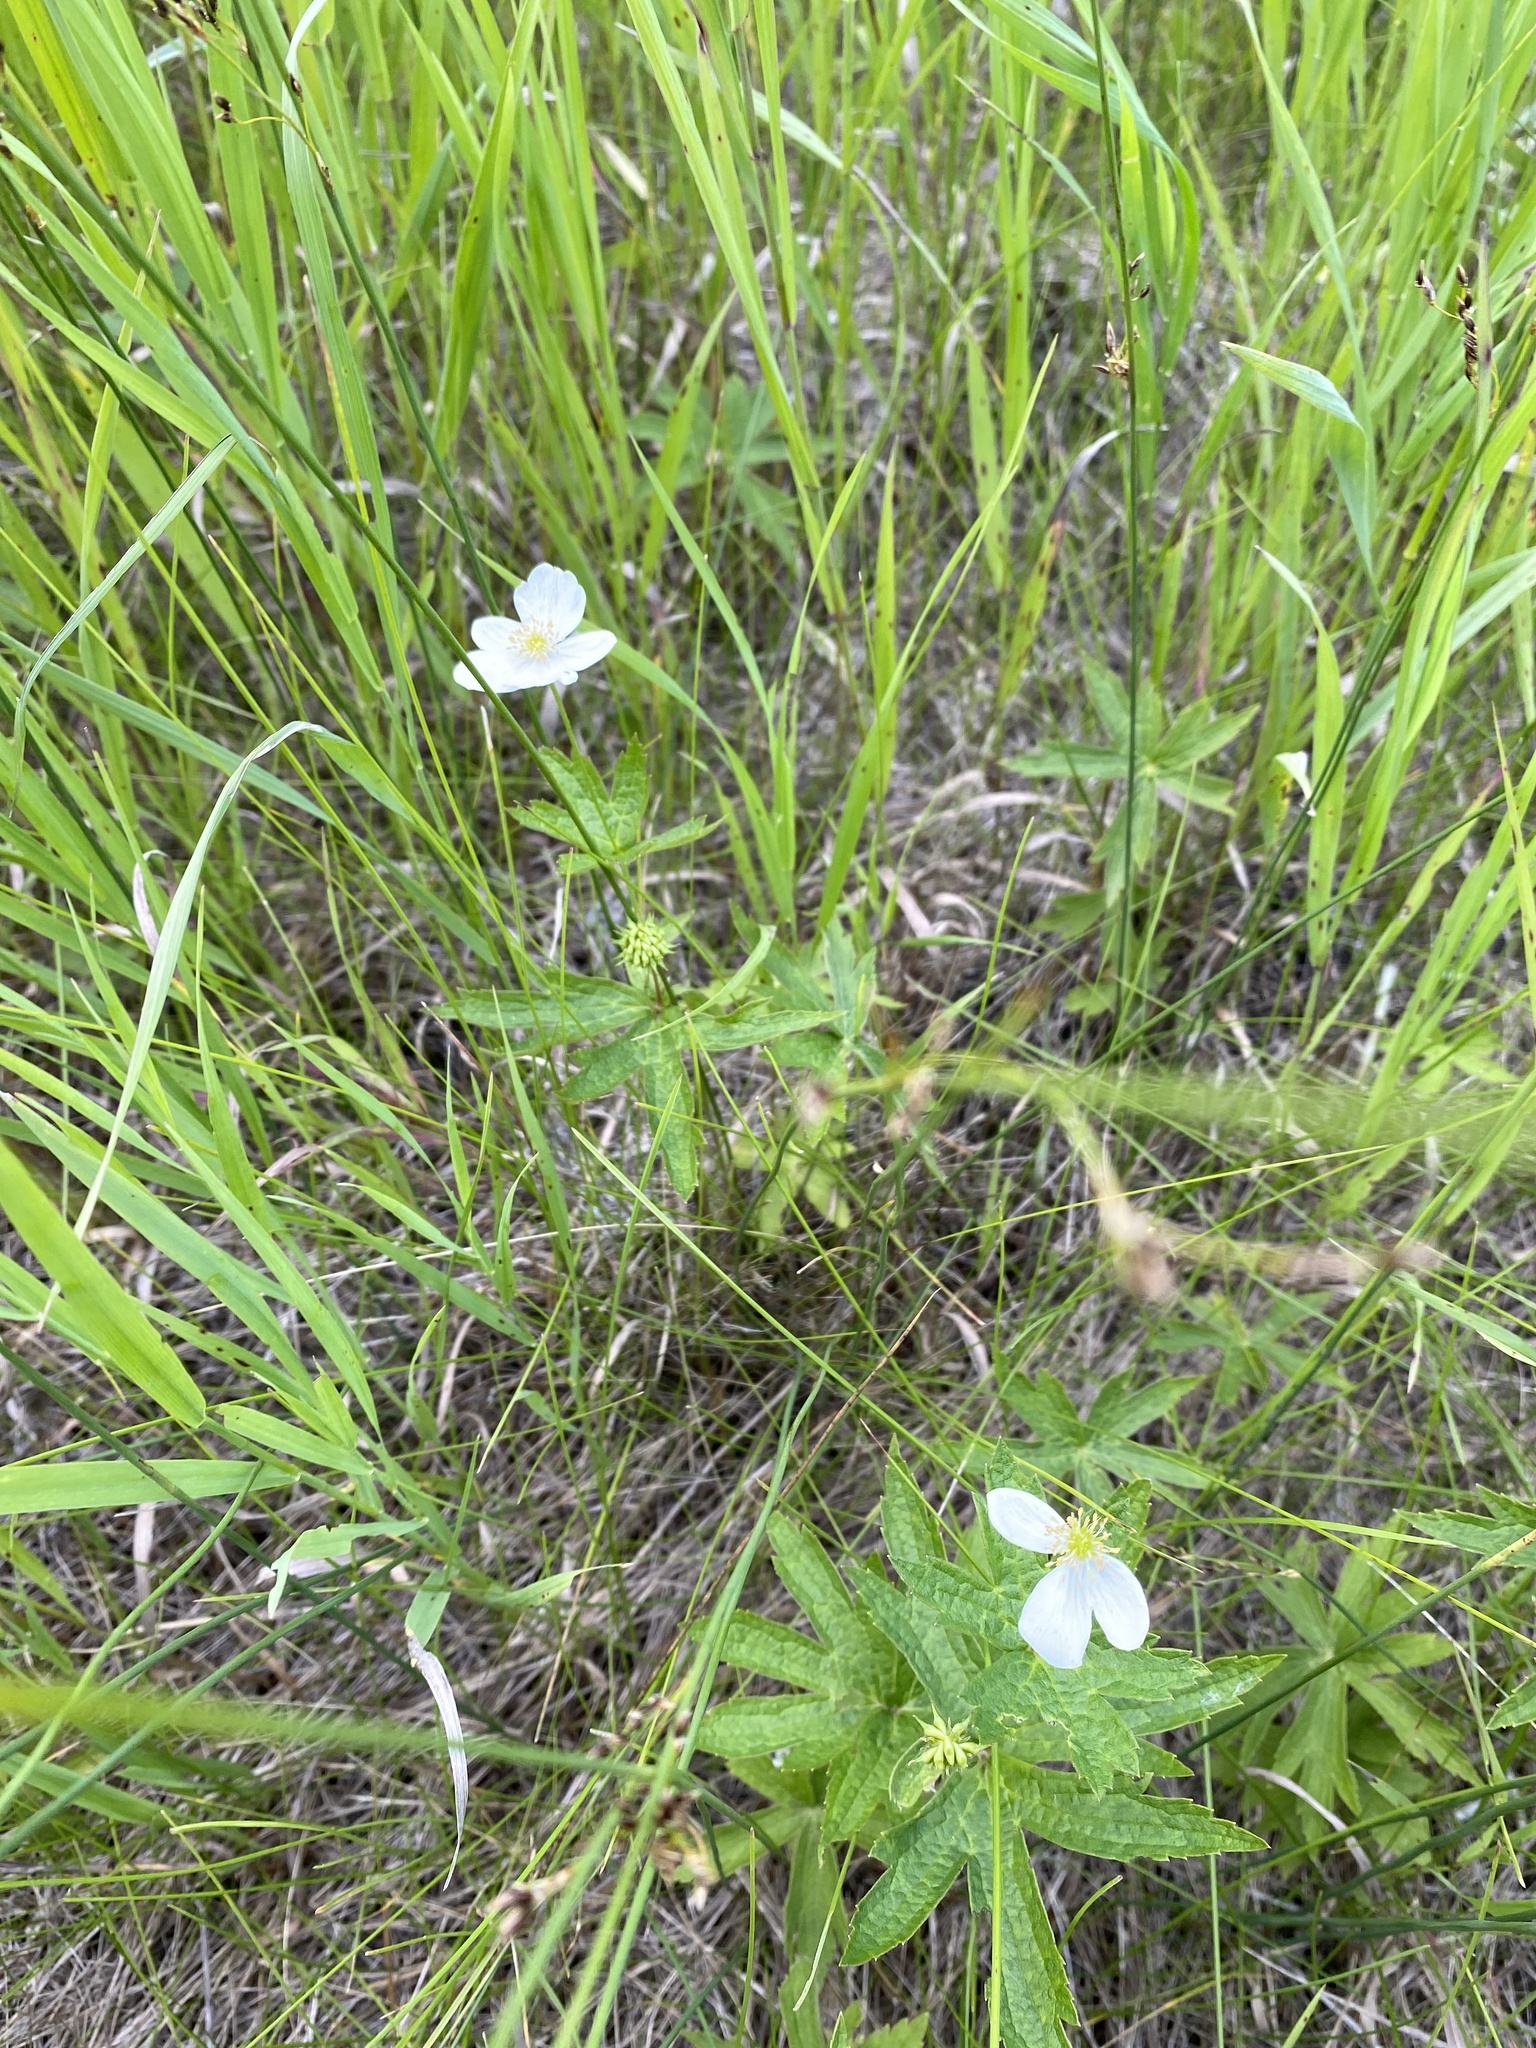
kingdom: Plantae
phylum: Tracheophyta
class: Magnoliopsida
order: Ranunculales
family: Ranunculaceae
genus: Anemonastrum
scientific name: Anemonastrum canadense
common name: Canada anemone
